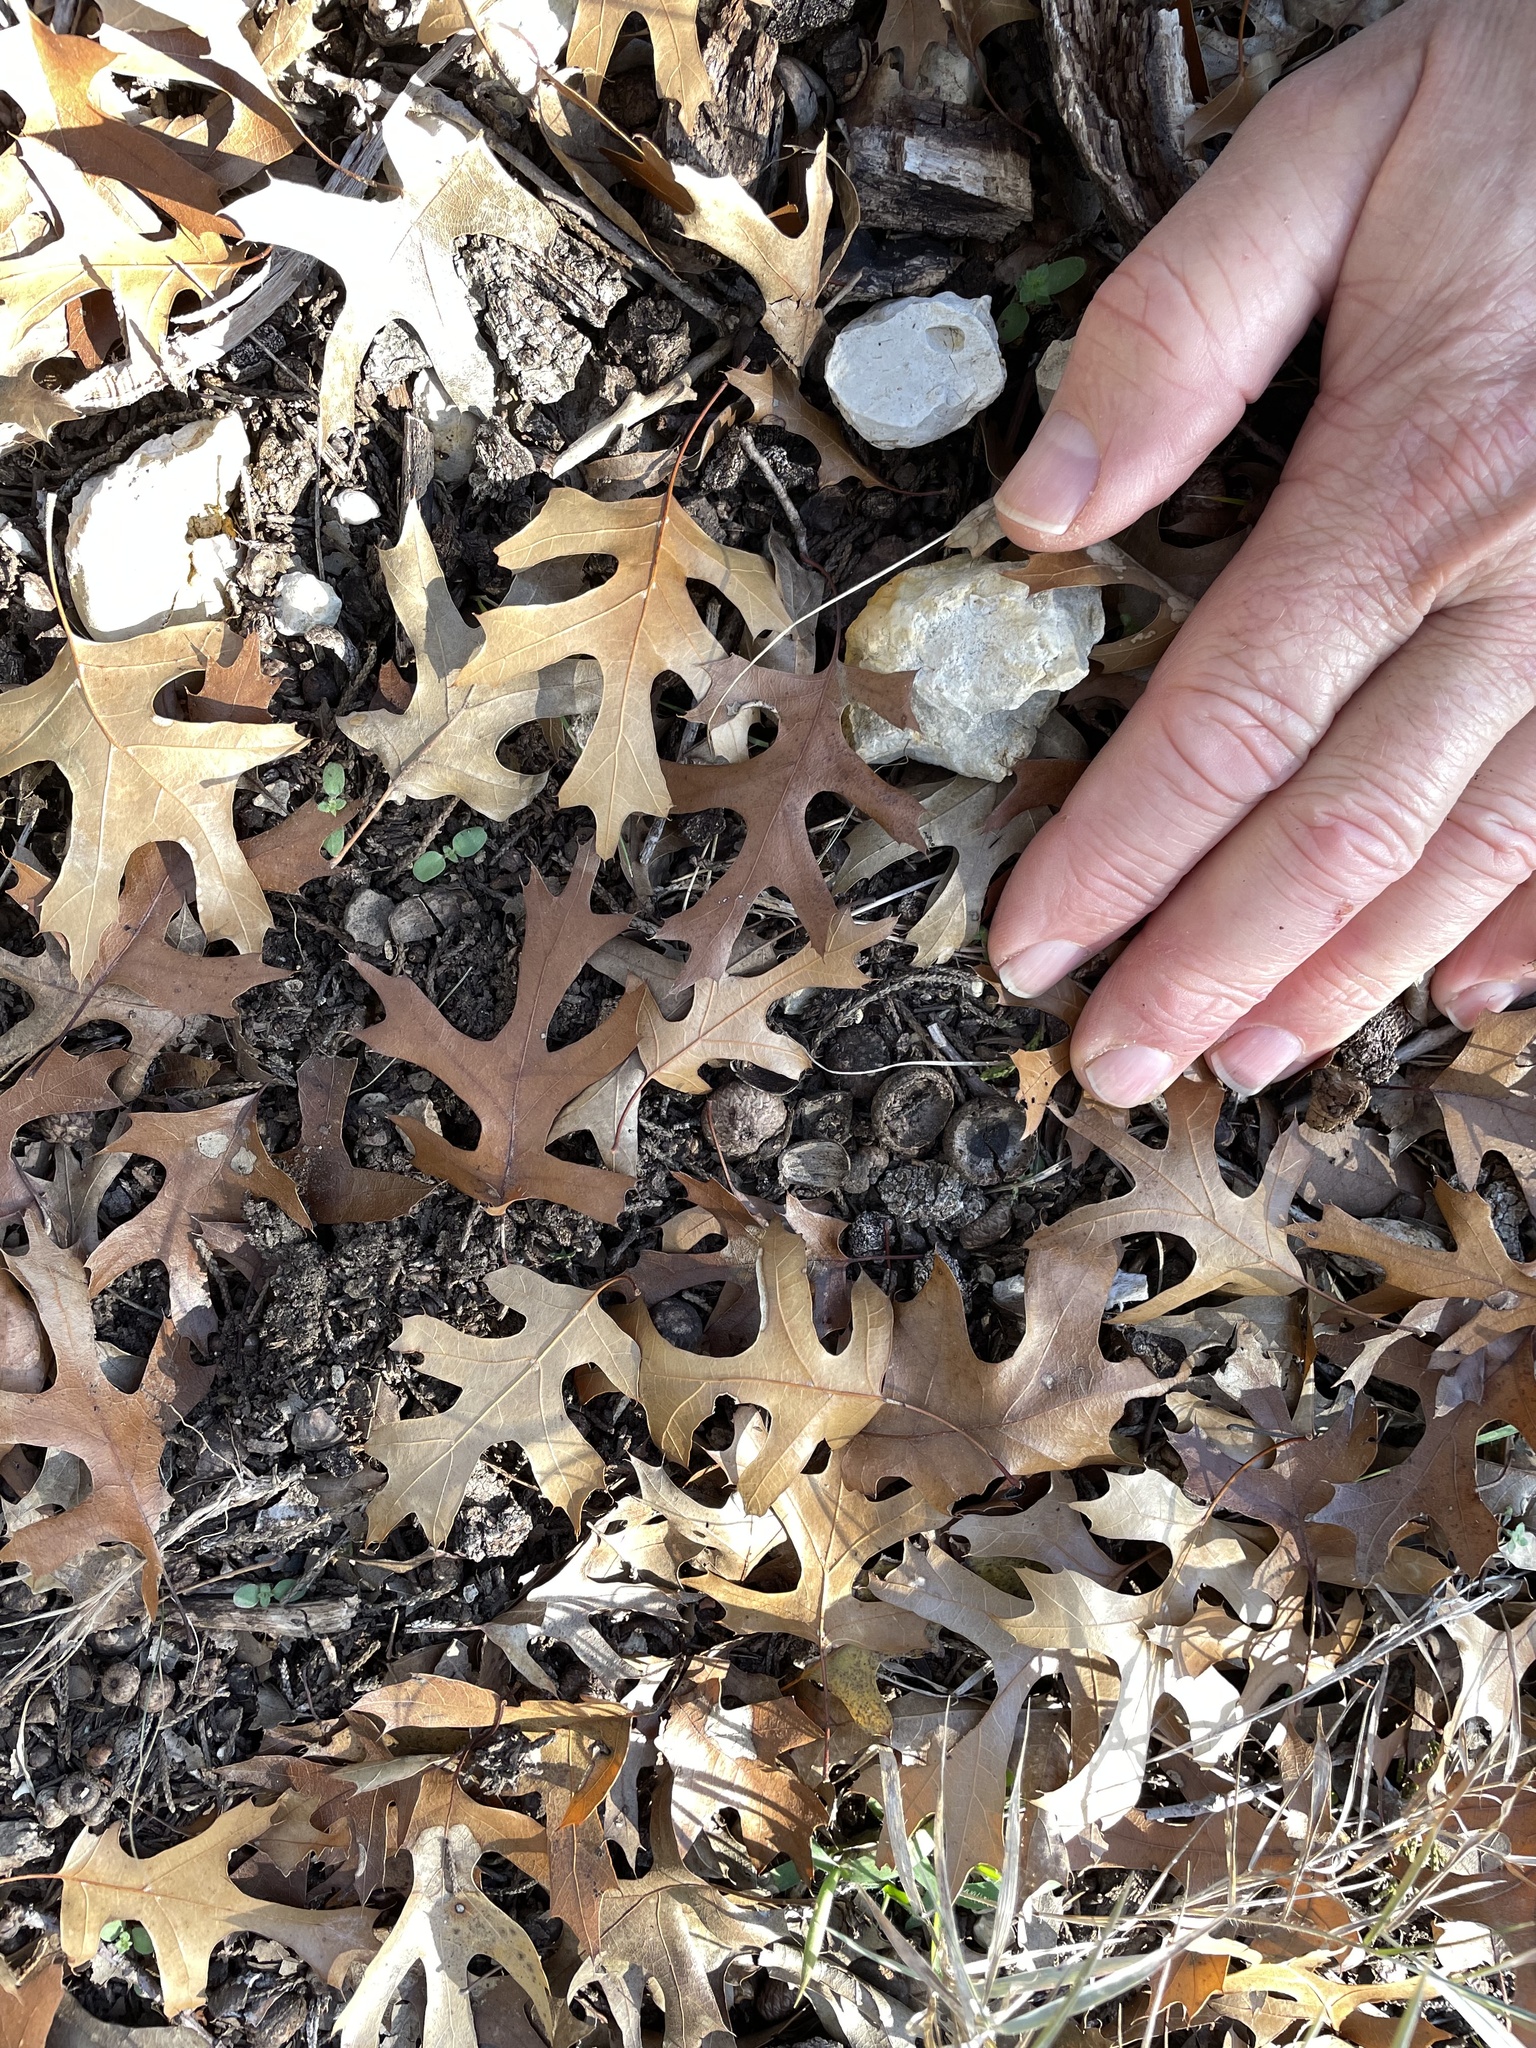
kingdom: Plantae
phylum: Tracheophyta
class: Magnoliopsida
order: Fagales
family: Fagaceae
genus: Quercus
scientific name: Quercus buckleyi
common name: Buckley oak
